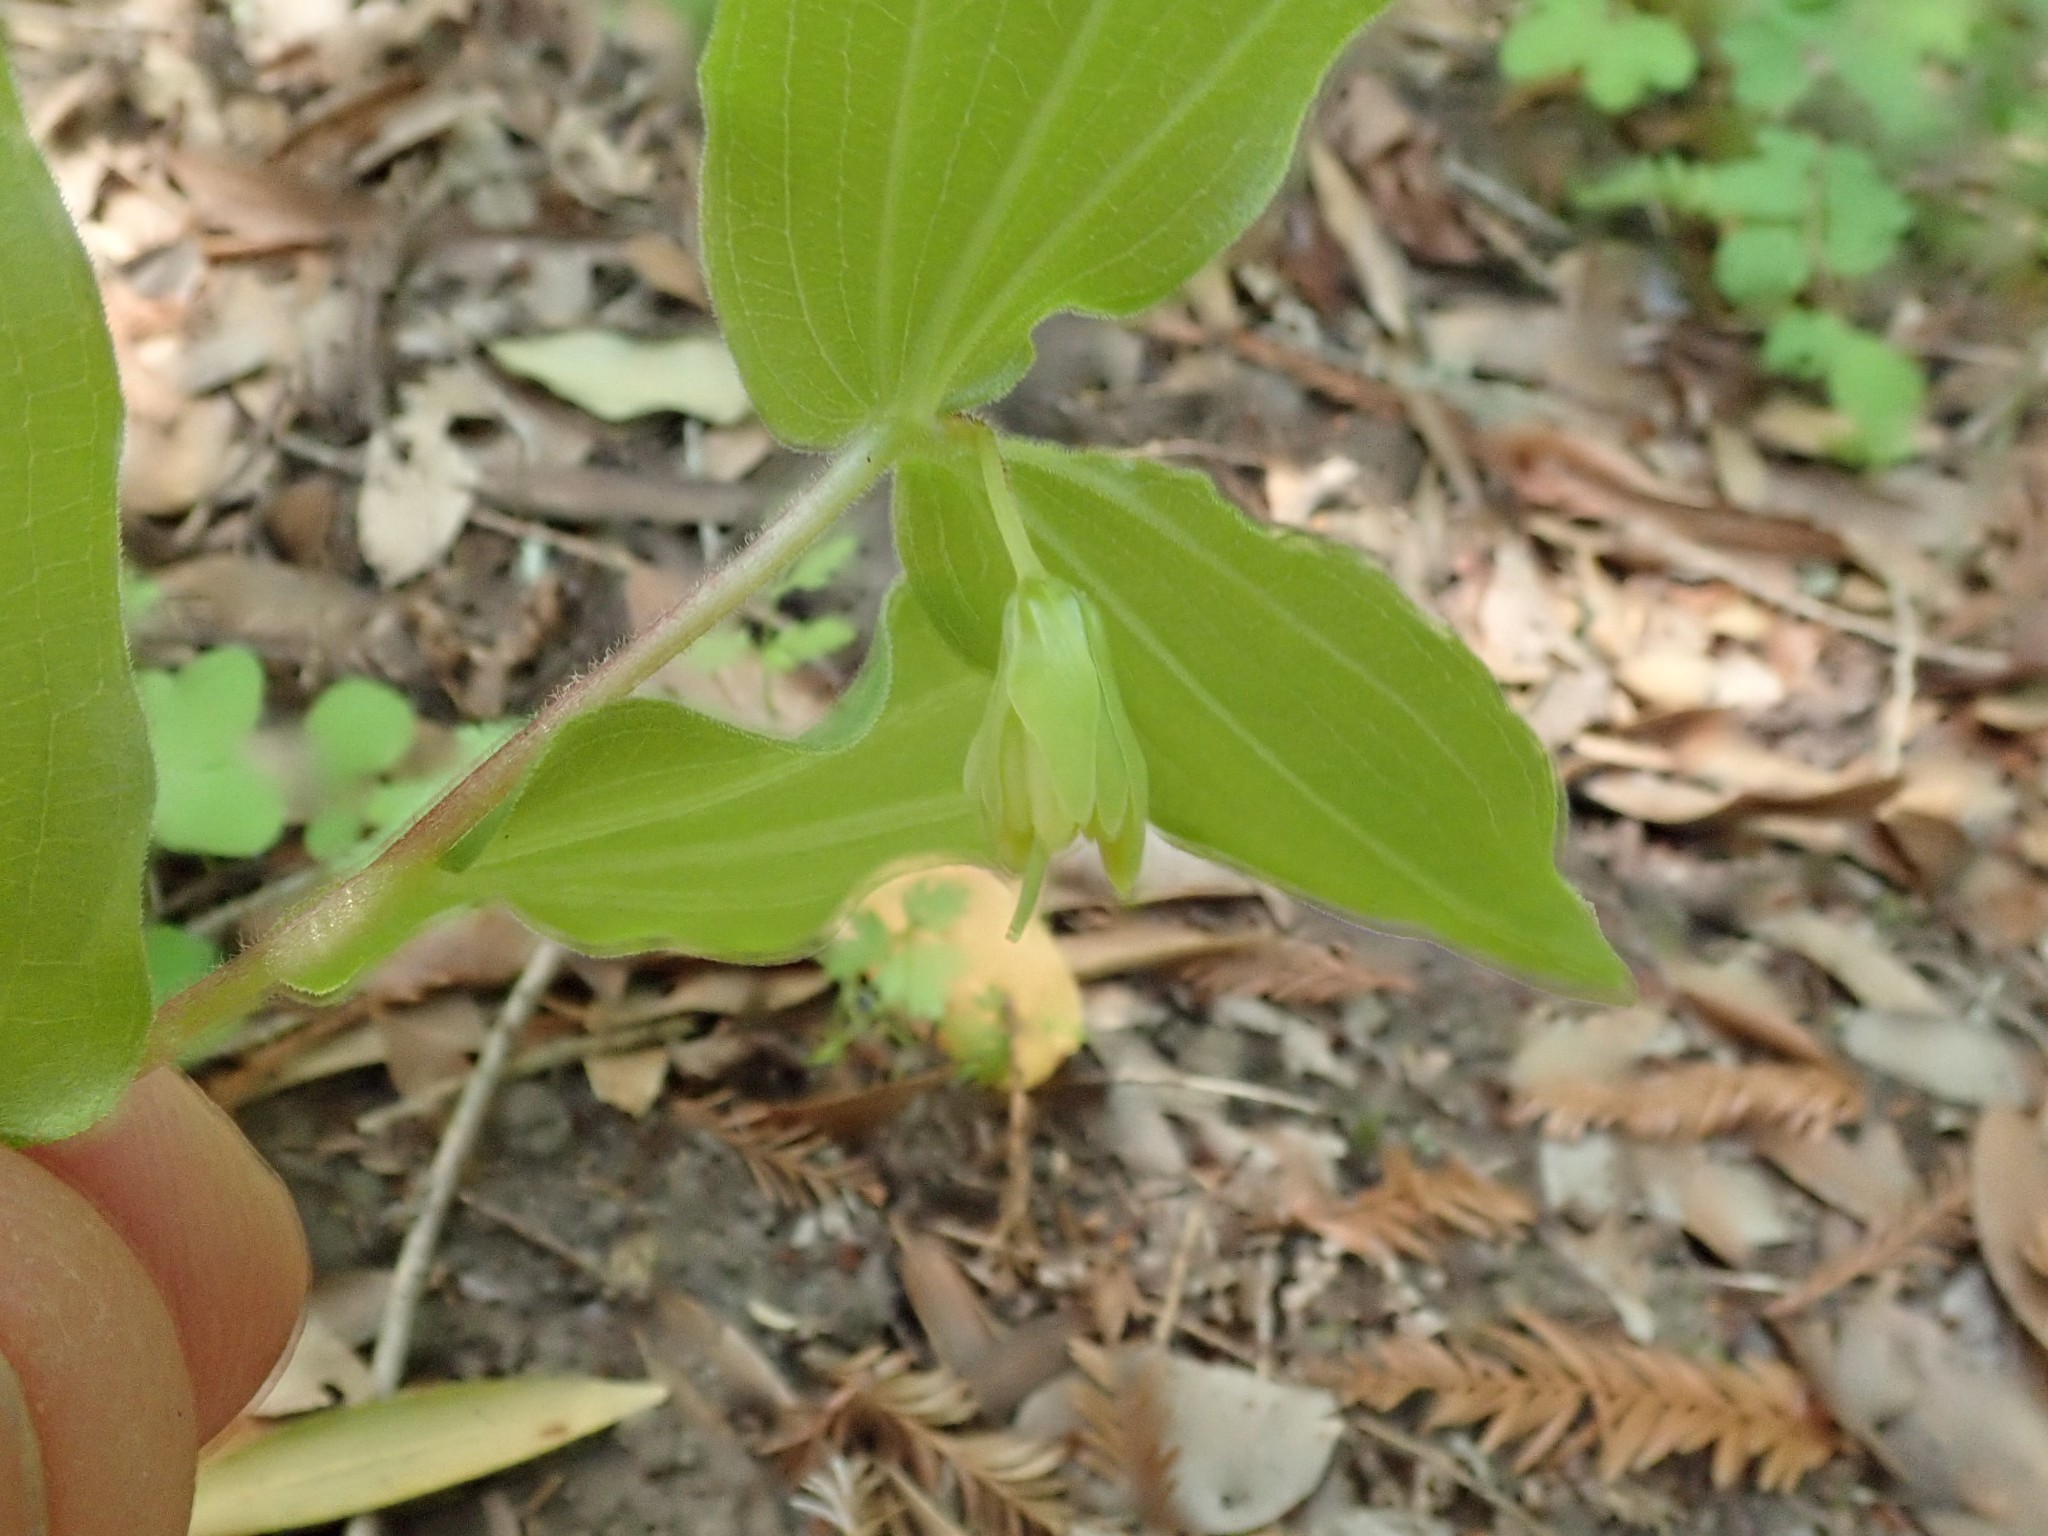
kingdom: Plantae
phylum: Tracheophyta
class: Liliopsida
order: Liliales
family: Liliaceae
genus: Prosartes
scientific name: Prosartes hookeri
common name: Fairy-bells
